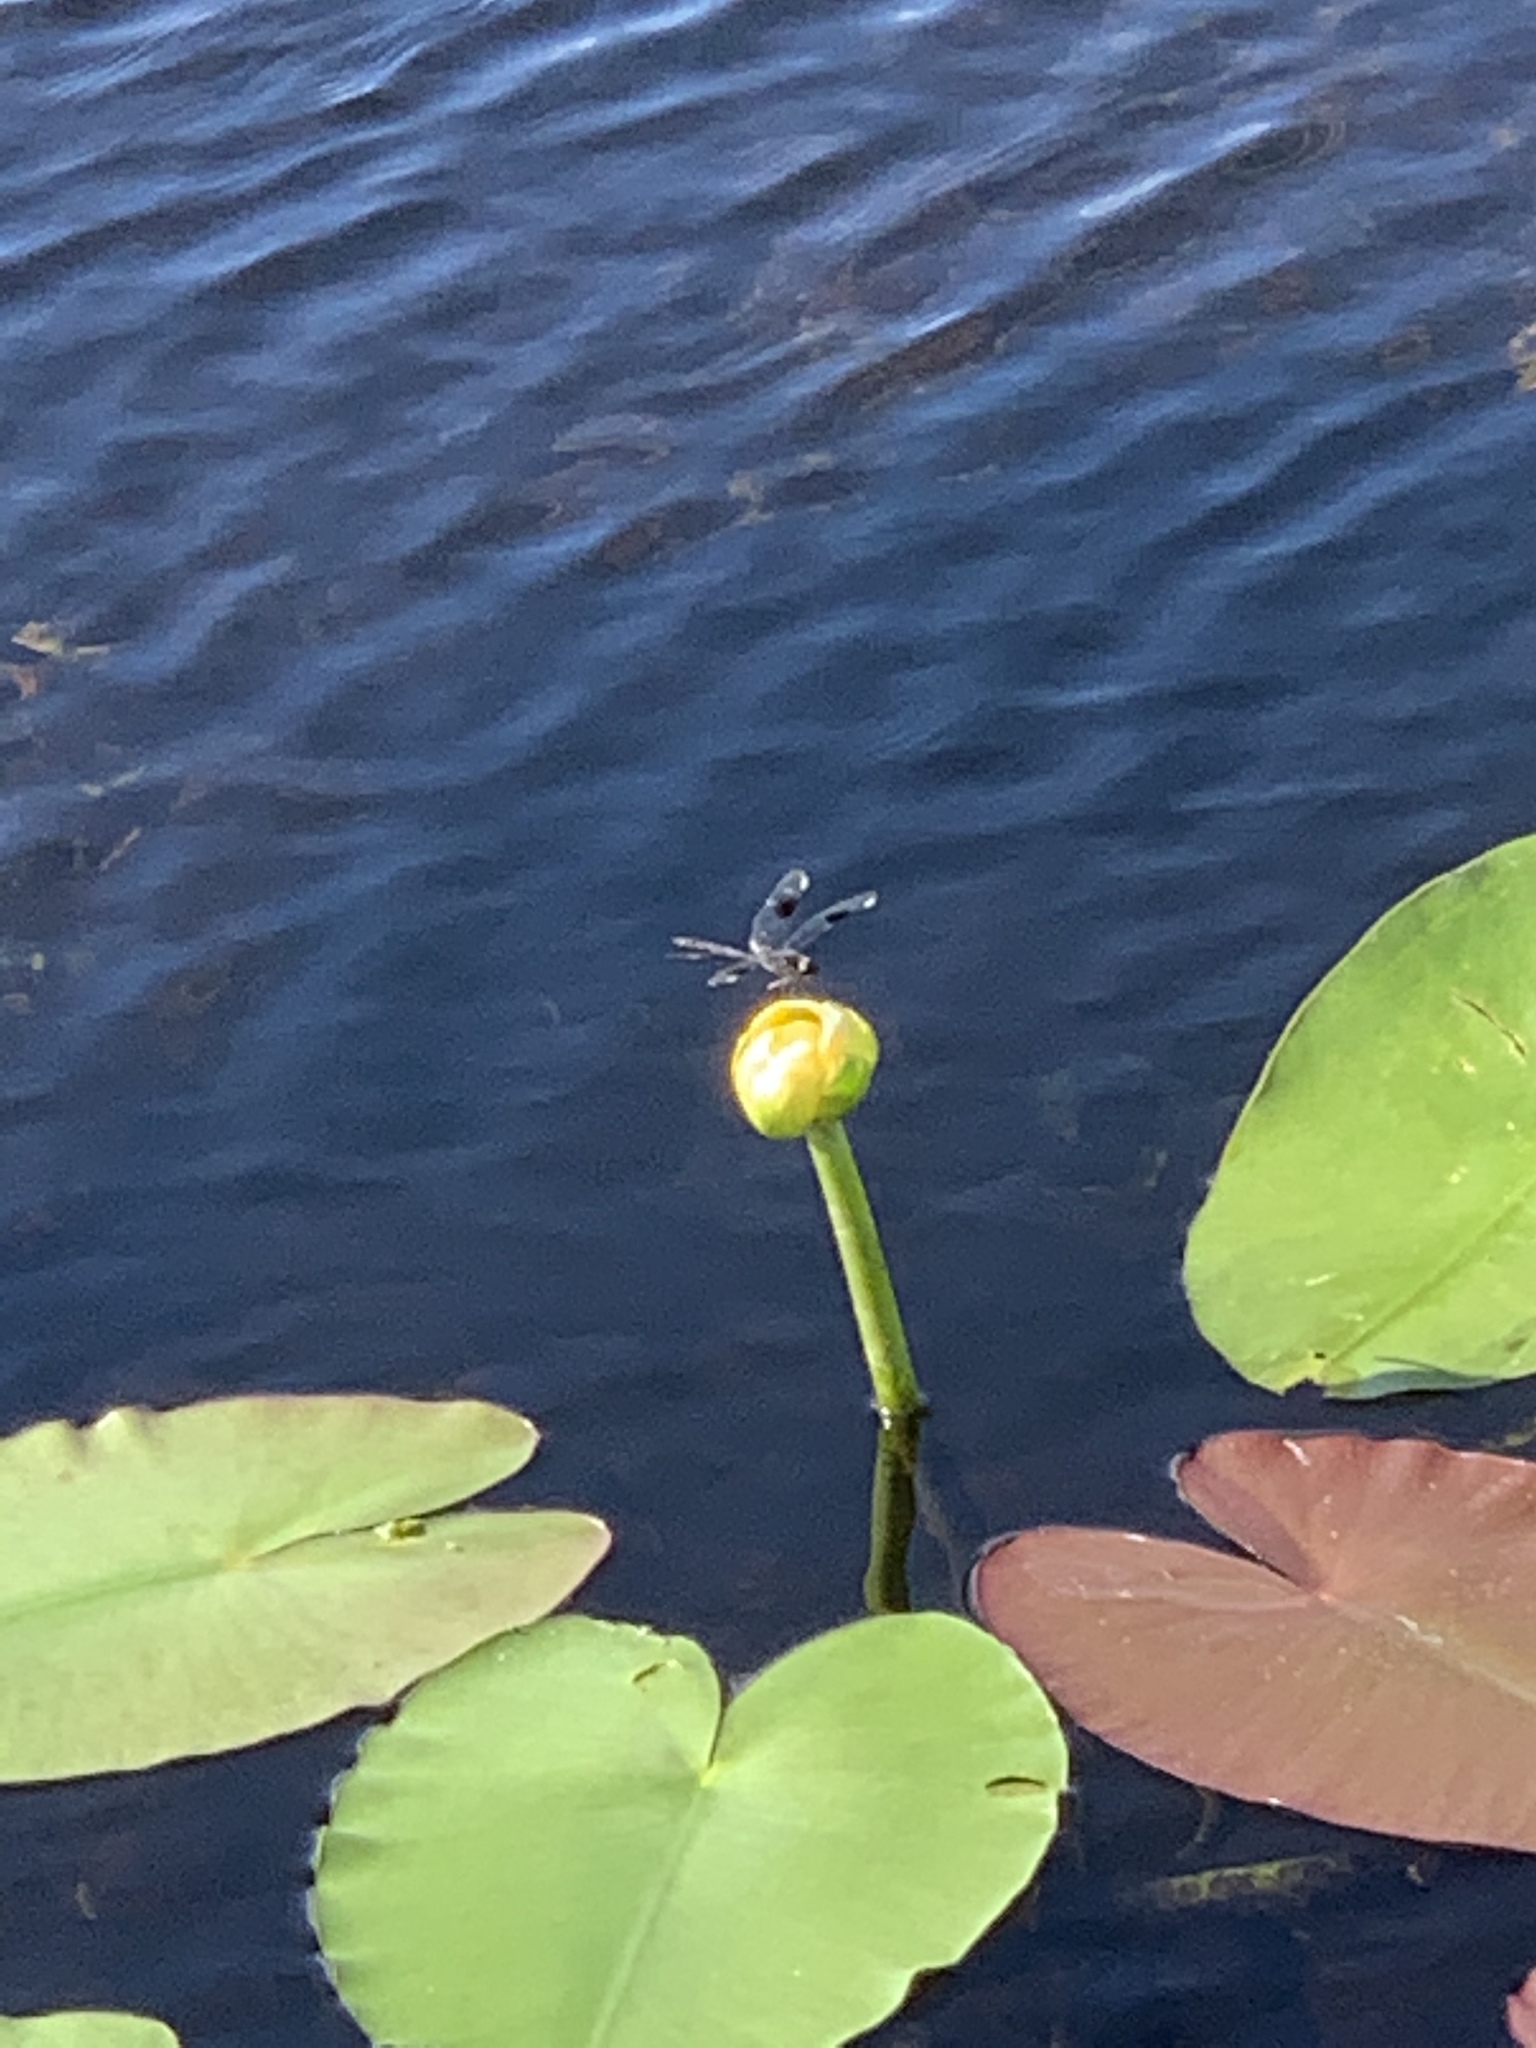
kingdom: Animalia
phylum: Arthropoda
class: Insecta
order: Odonata
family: Libellulidae
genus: Brachymesia
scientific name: Brachymesia gravida
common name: Four-spotted pennant
